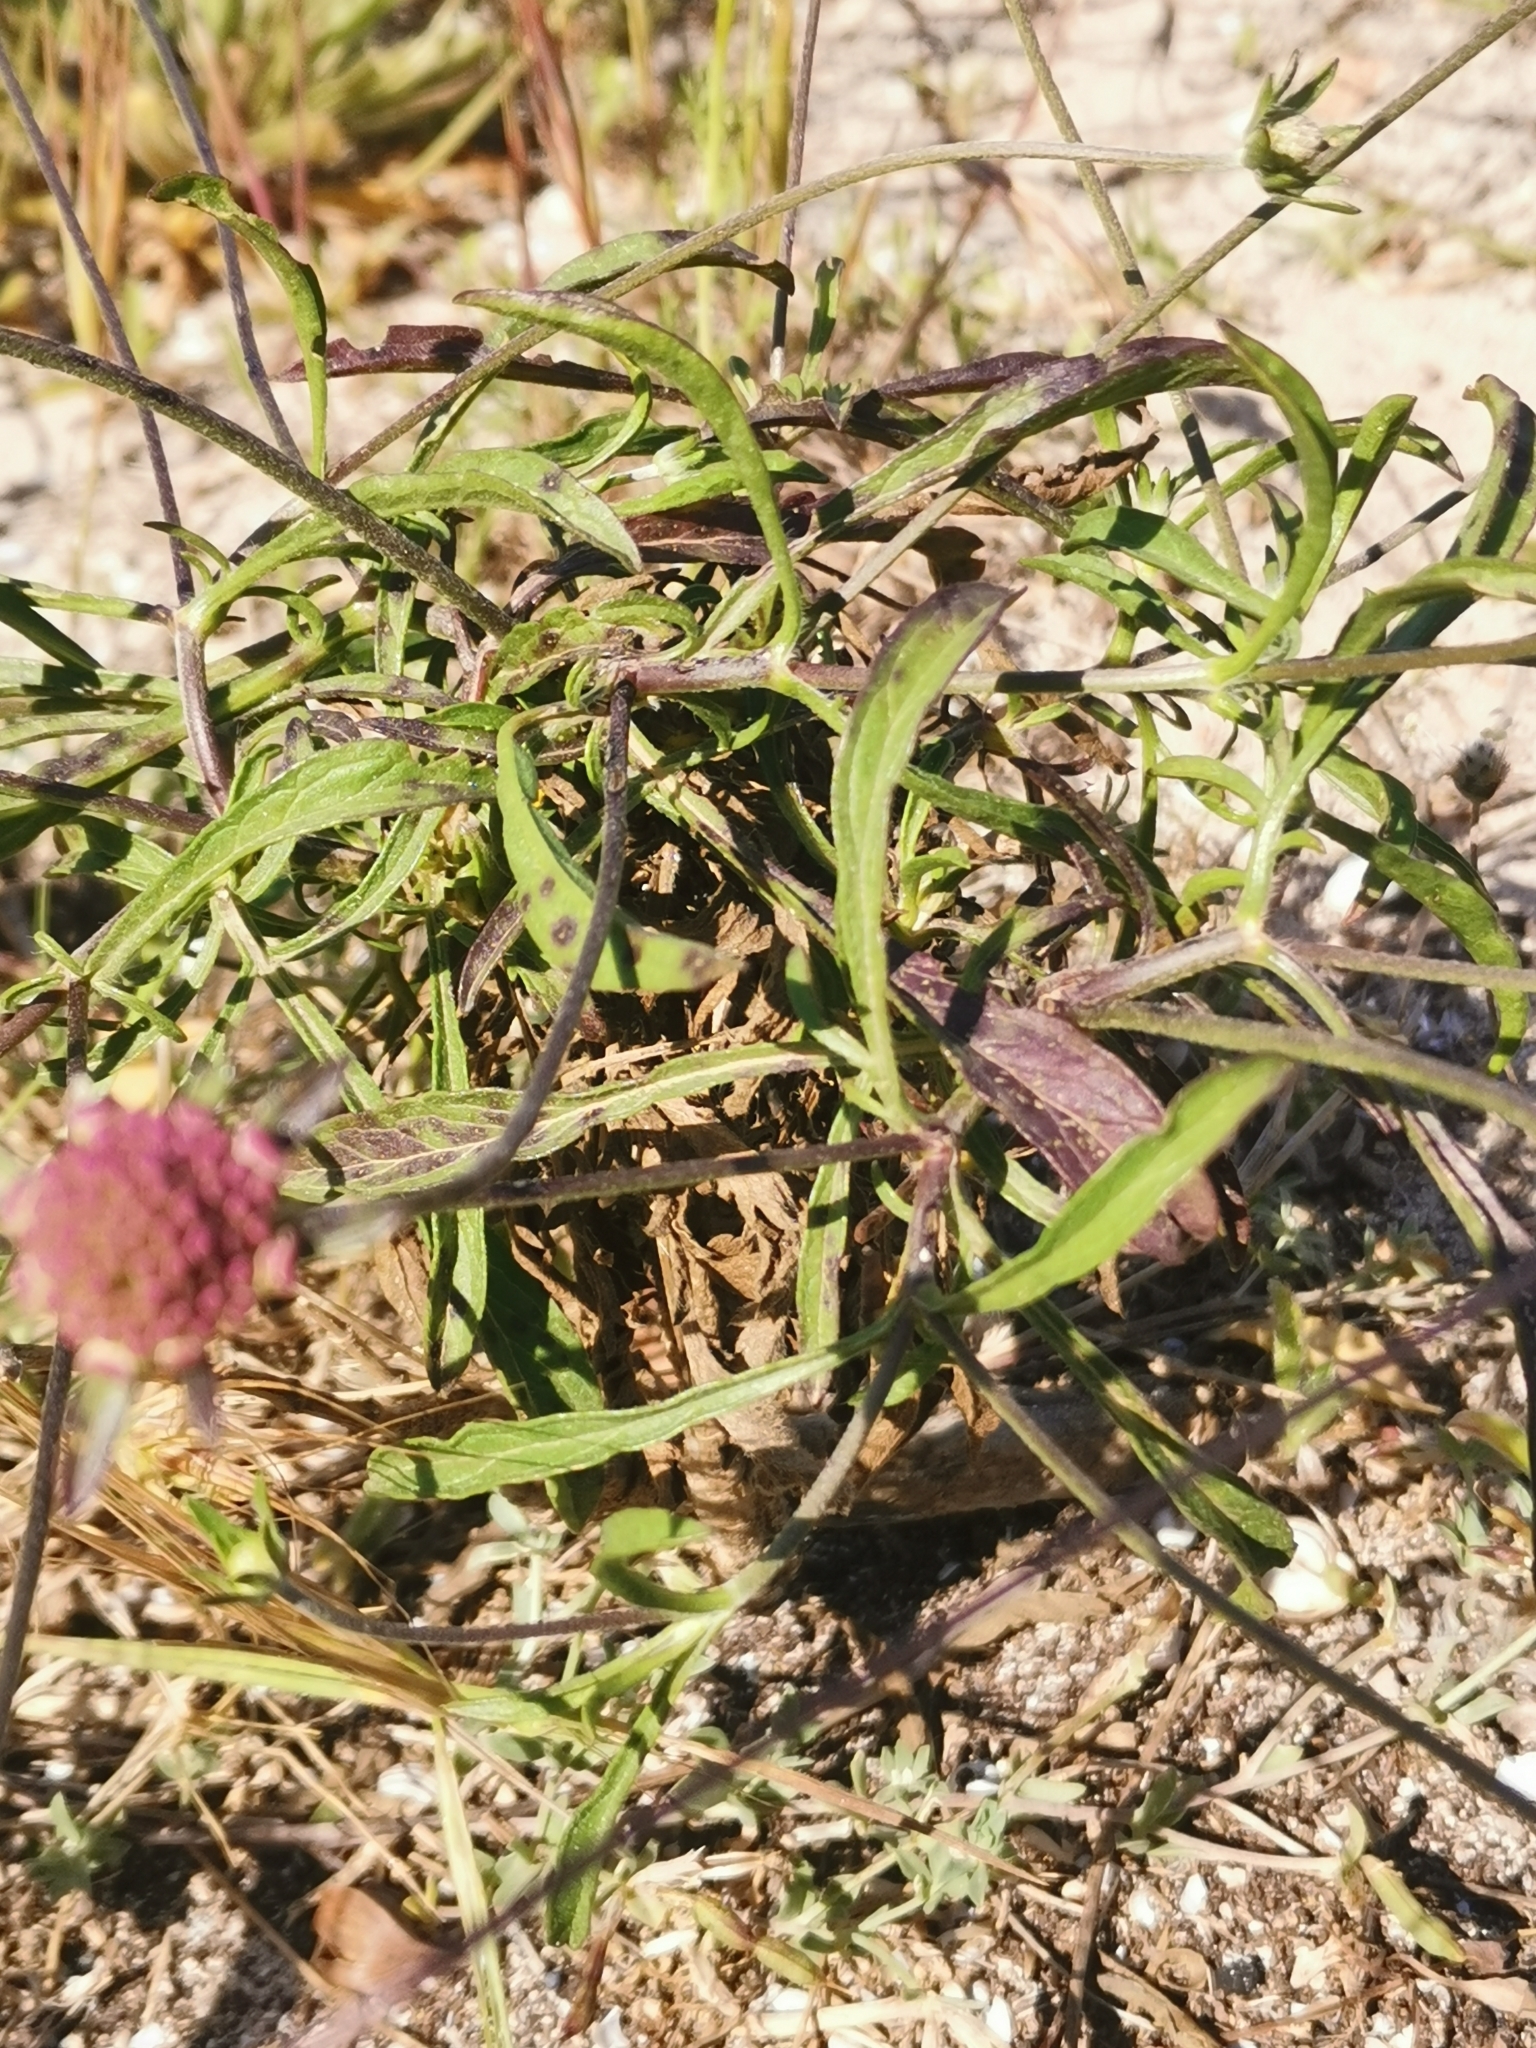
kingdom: Plantae
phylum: Tracheophyta
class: Magnoliopsida
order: Dipsacales
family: Caprifoliaceae
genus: Sixalix
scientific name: Sixalix atropurpurea
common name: Sweet scabious
